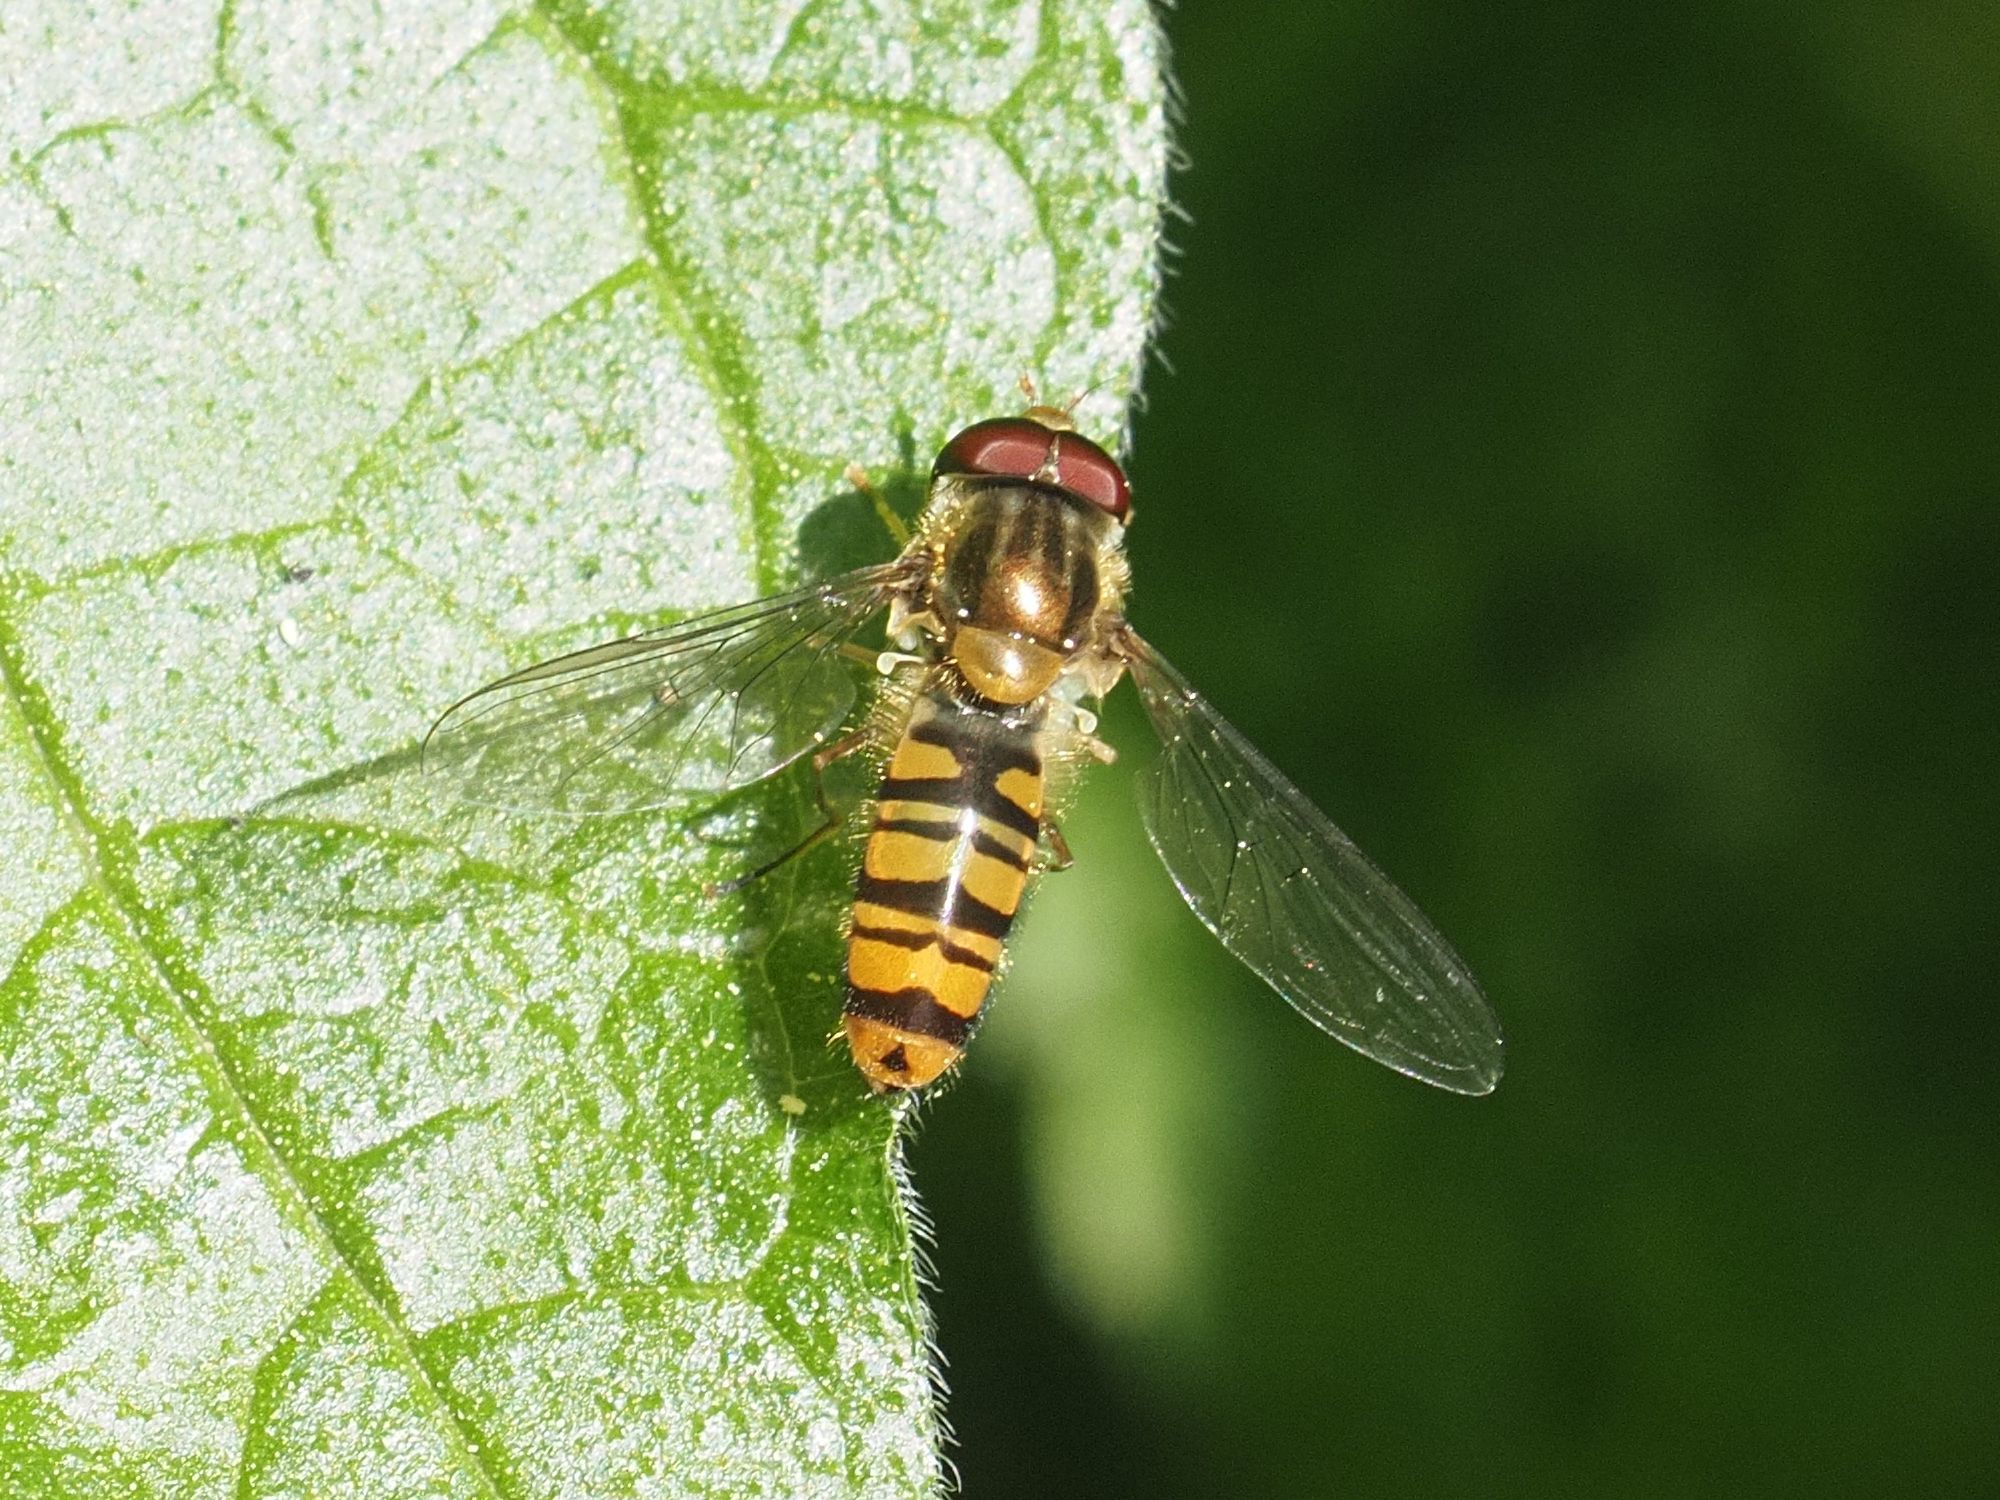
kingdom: Animalia
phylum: Arthropoda
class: Insecta
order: Diptera
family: Syrphidae
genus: Episyrphus
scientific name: Episyrphus balteatus
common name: Marmalade hoverfly
